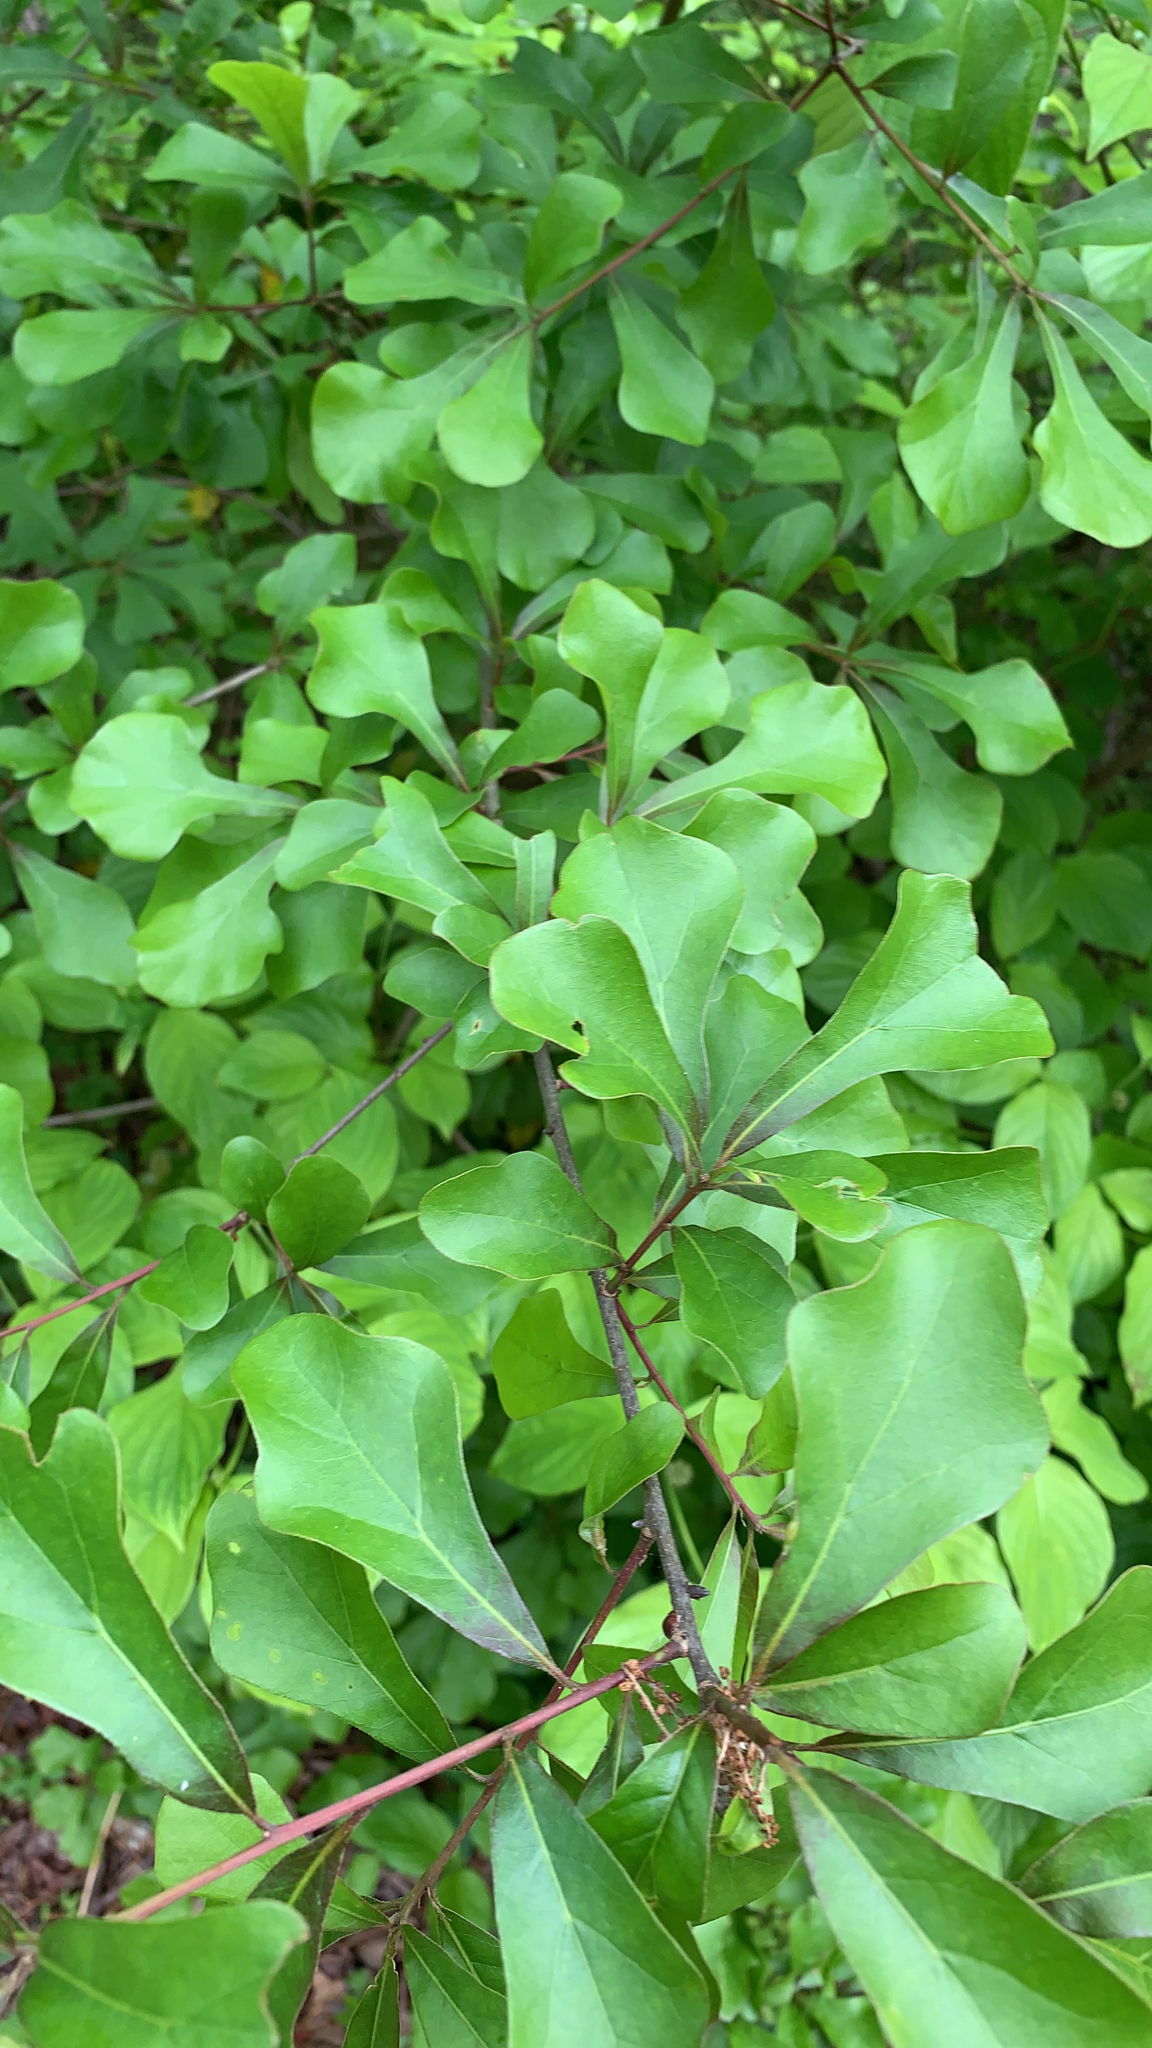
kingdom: Plantae
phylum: Tracheophyta
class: Magnoliopsida
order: Fagales
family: Fagaceae
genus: Quercus
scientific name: Quercus nigra
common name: Water oak
